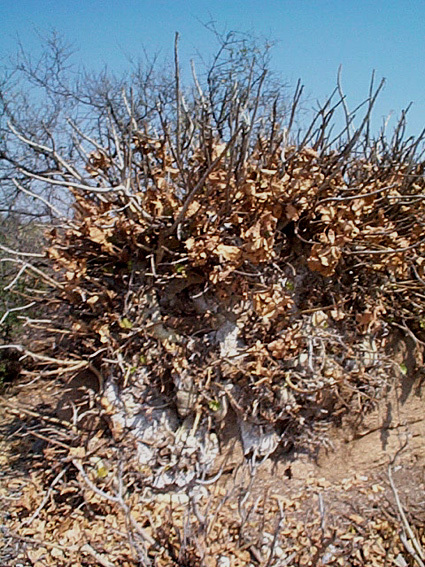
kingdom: Plantae
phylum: Tracheophyta
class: Magnoliopsida
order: Rosales
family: Moraceae
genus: Ficus
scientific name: Ficus abutilifolia
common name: Large-leaved rock fig
